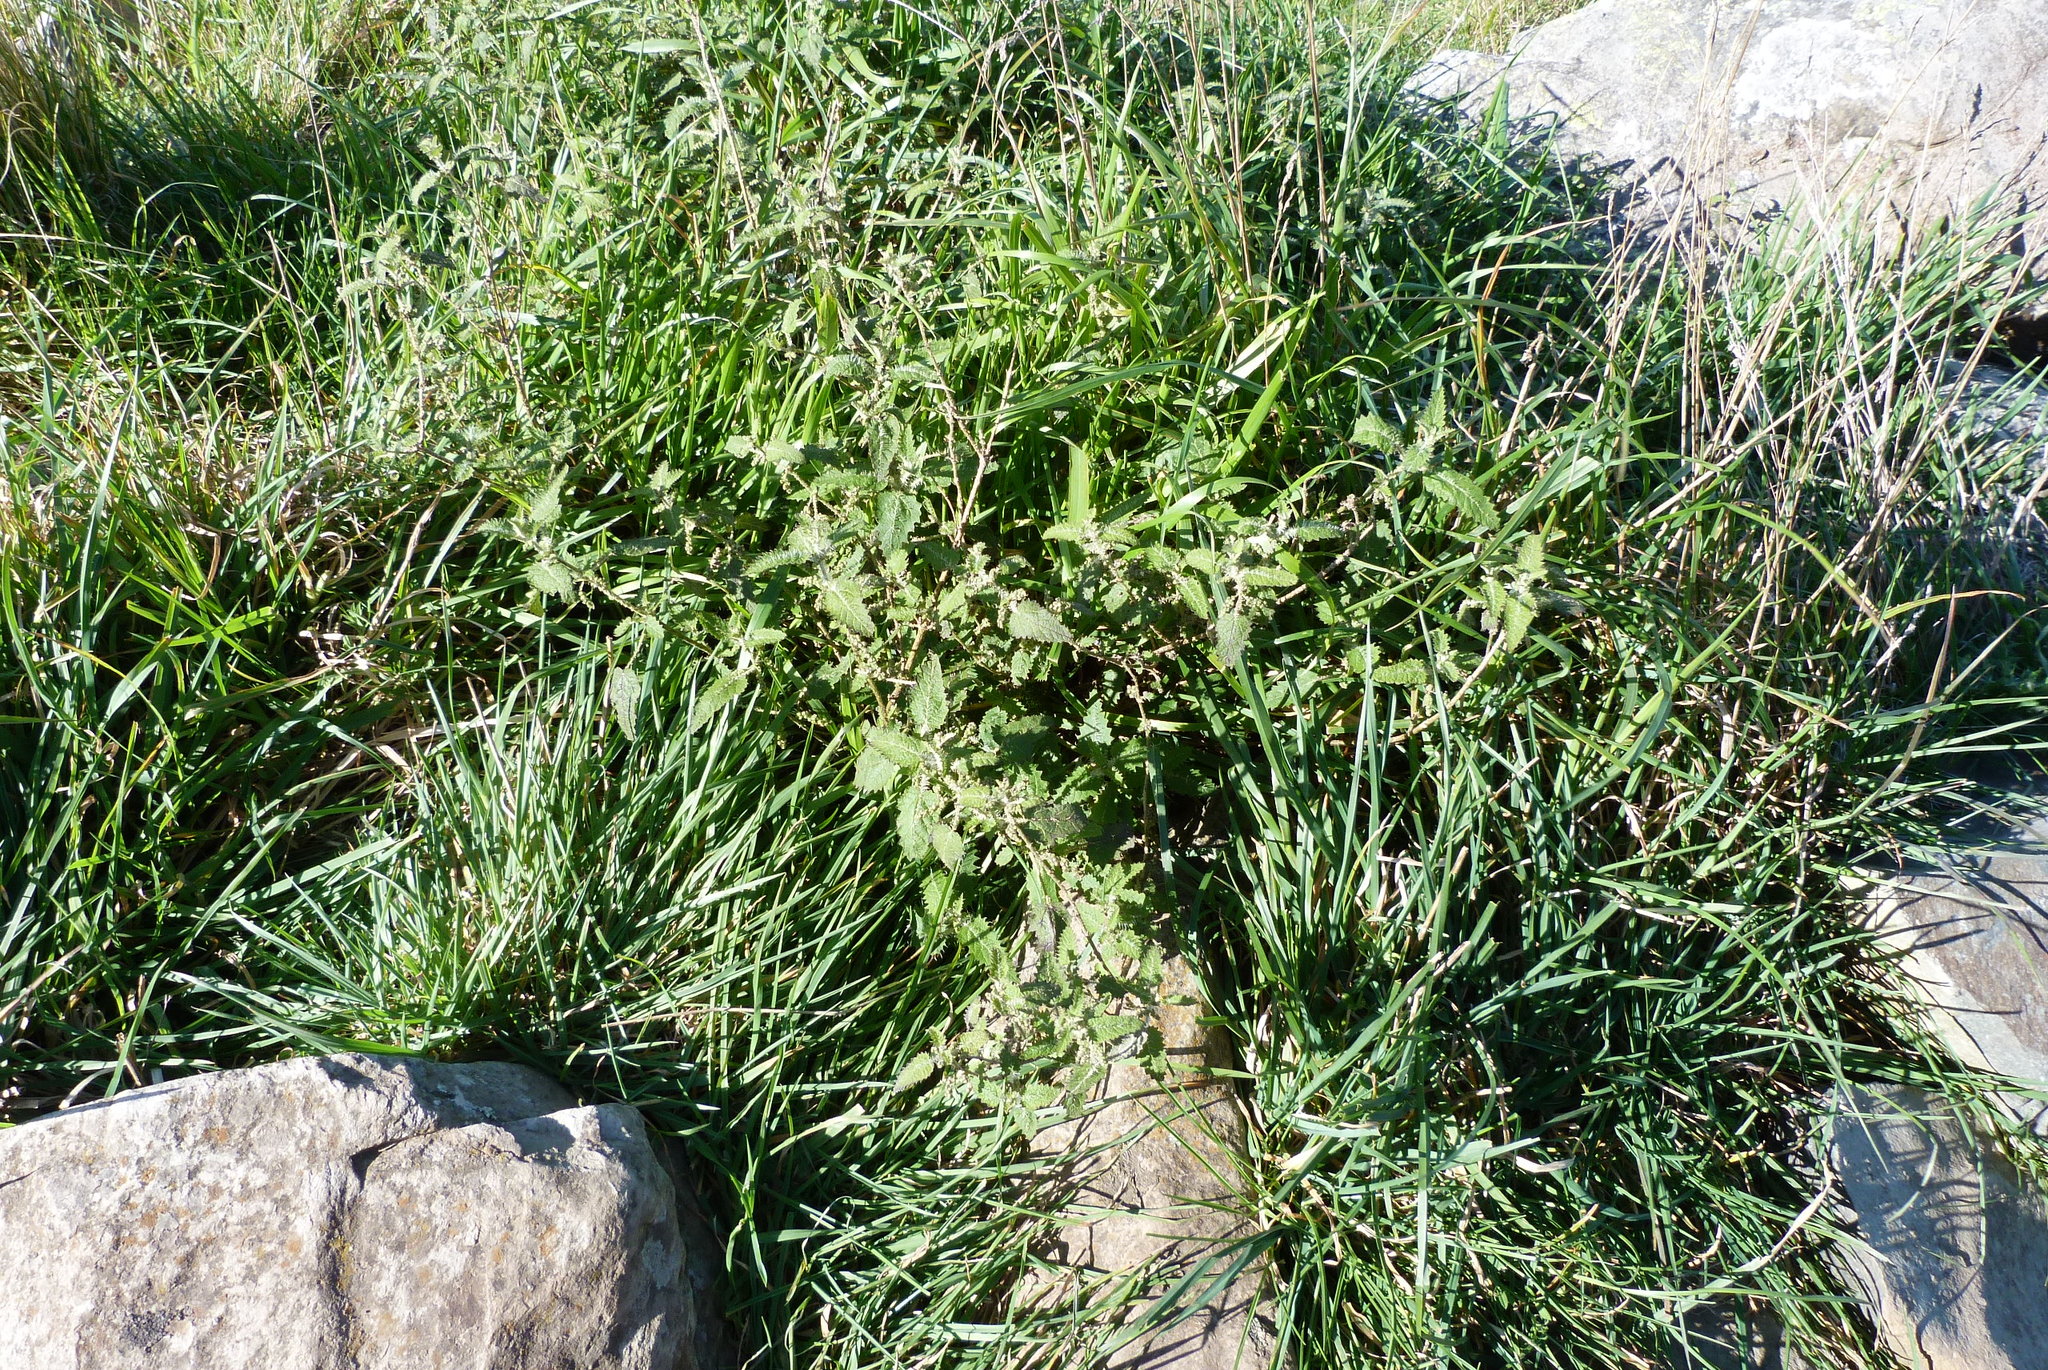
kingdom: Plantae
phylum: Tracheophyta
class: Magnoliopsida
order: Rosales
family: Urticaceae
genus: Urtica
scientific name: Urtica ferox
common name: Tree nettle
